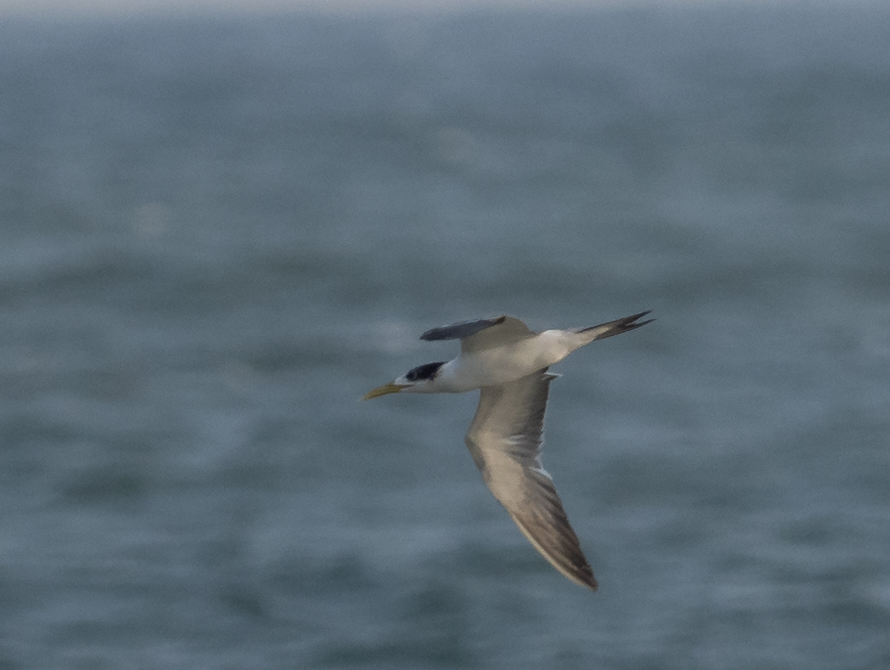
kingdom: Animalia
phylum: Chordata
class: Aves
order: Charadriiformes
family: Laridae
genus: Thalasseus
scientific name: Thalasseus bergii
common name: Greater crested tern
